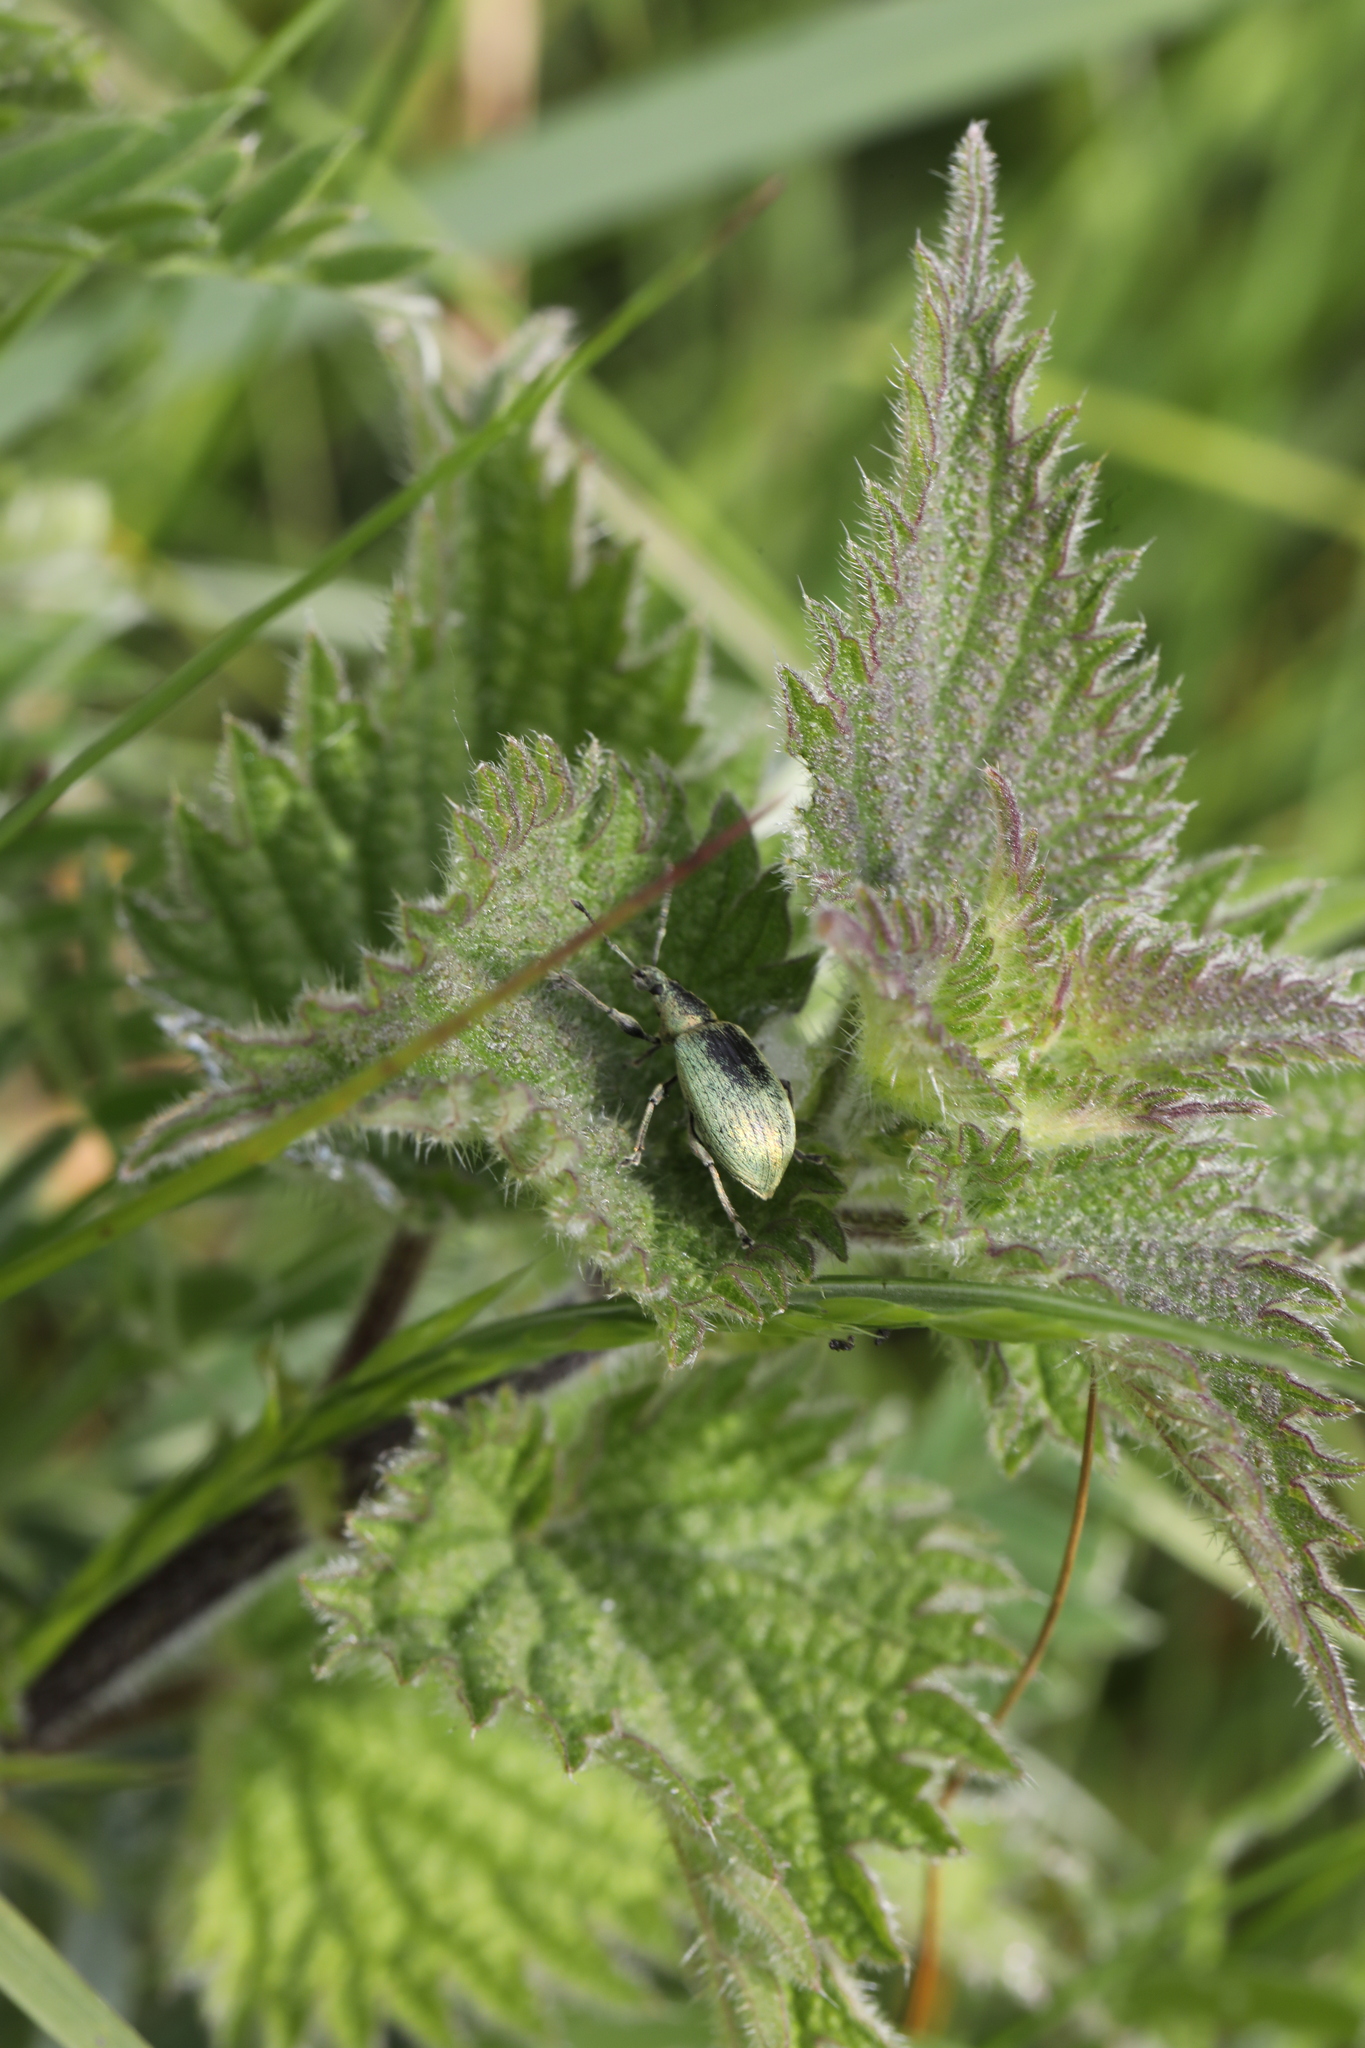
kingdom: Animalia
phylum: Arthropoda
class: Insecta
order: Coleoptera
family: Curculionidae
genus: Phyllobius
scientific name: Phyllobius pomaceus
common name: Green nettle weevil
